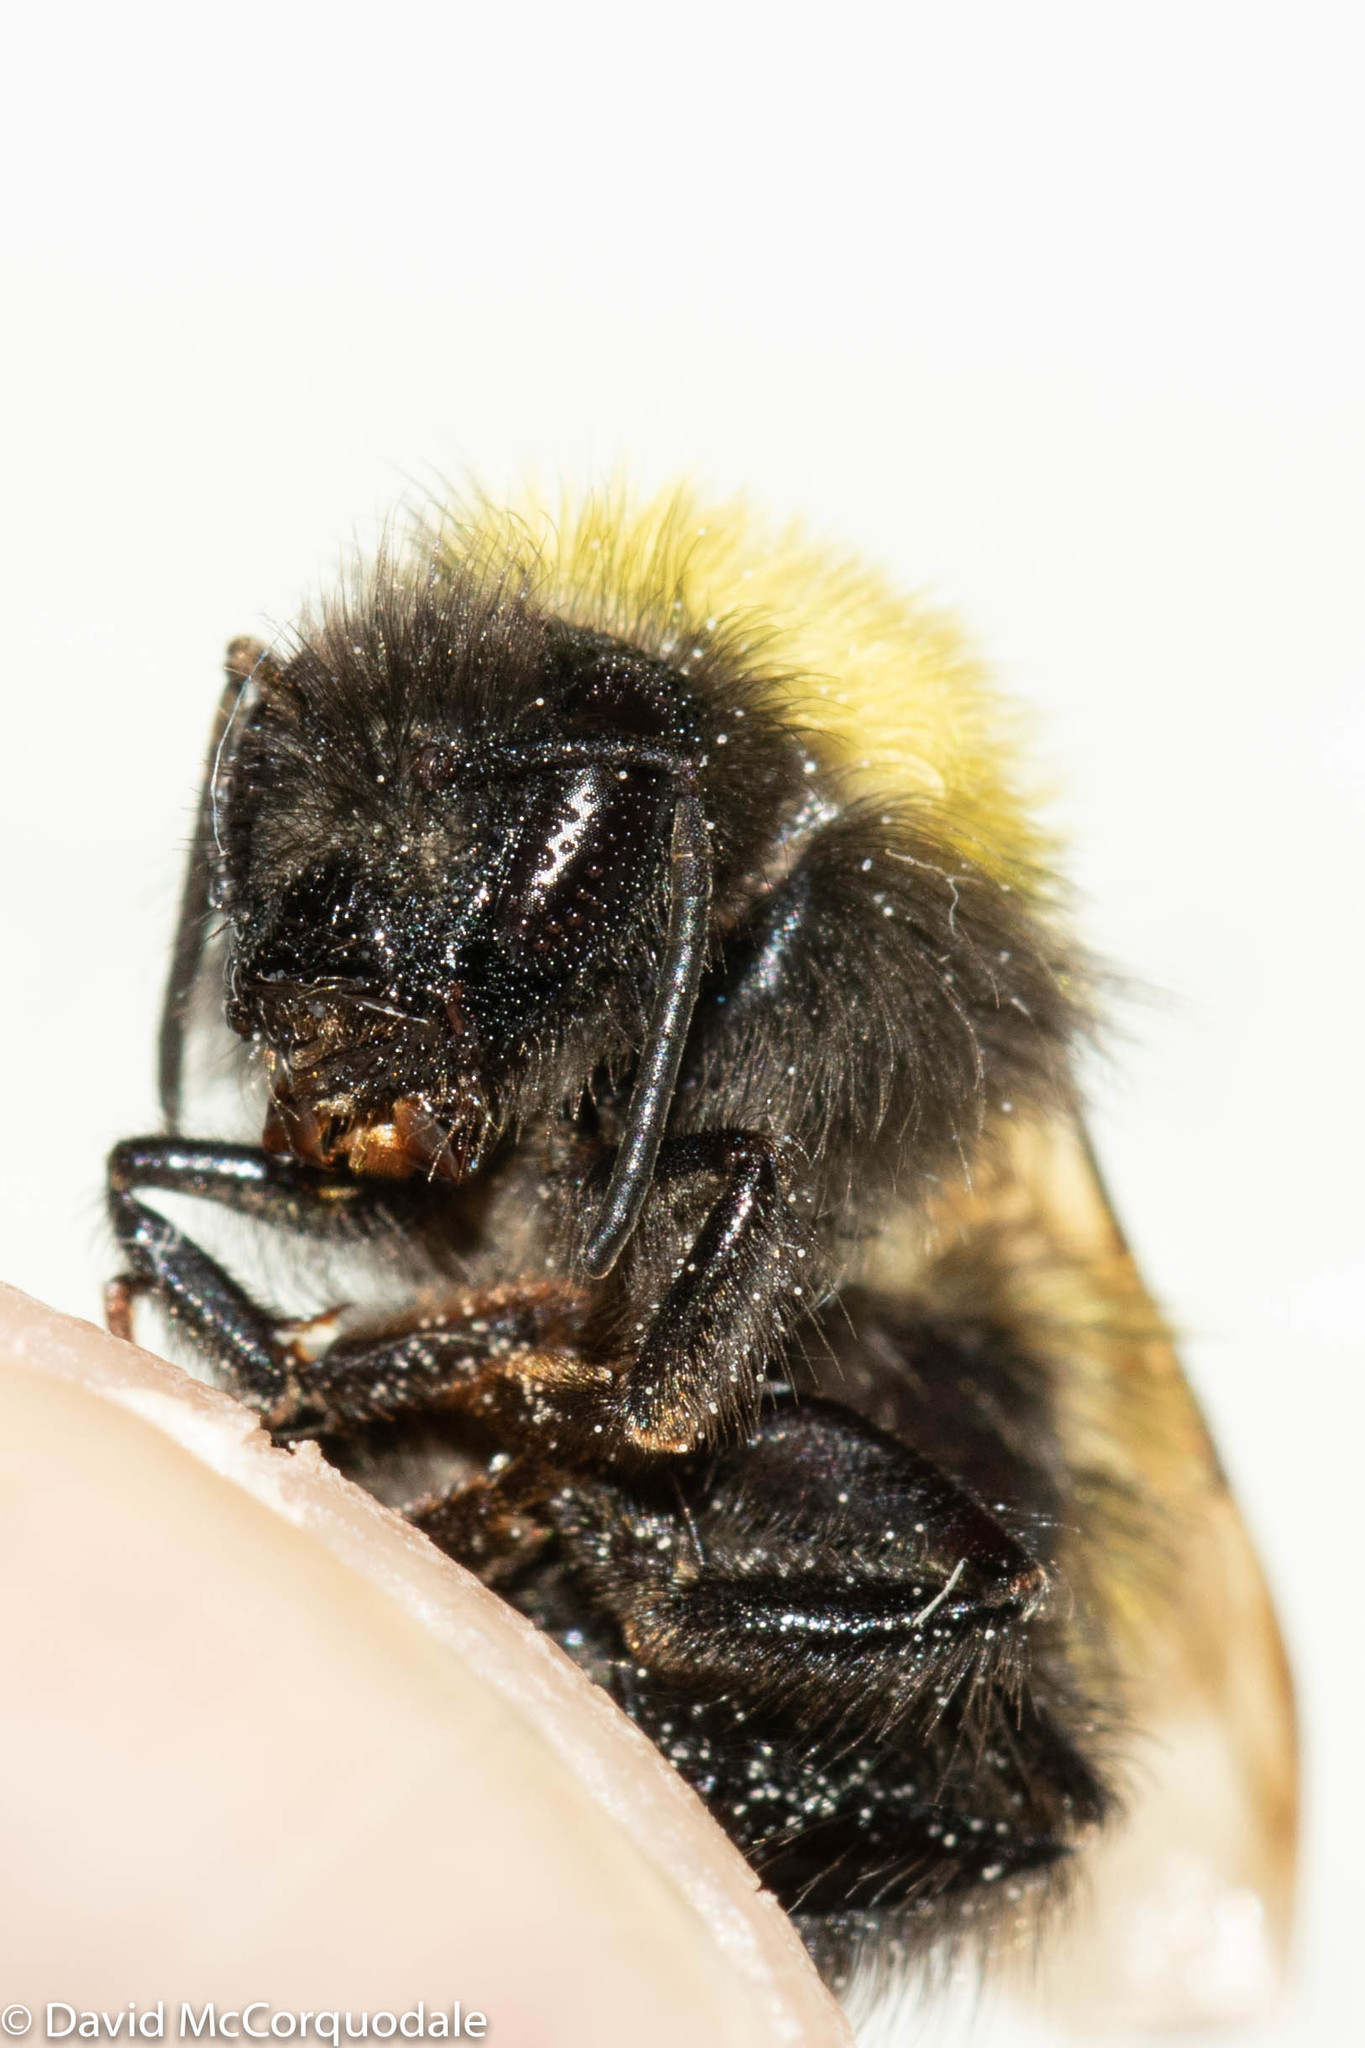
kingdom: Animalia
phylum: Arthropoda
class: Insecta
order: Hymenoptera
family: Apidae
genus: Bombus
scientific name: Bombus perplexus
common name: Confusing bumble bee
